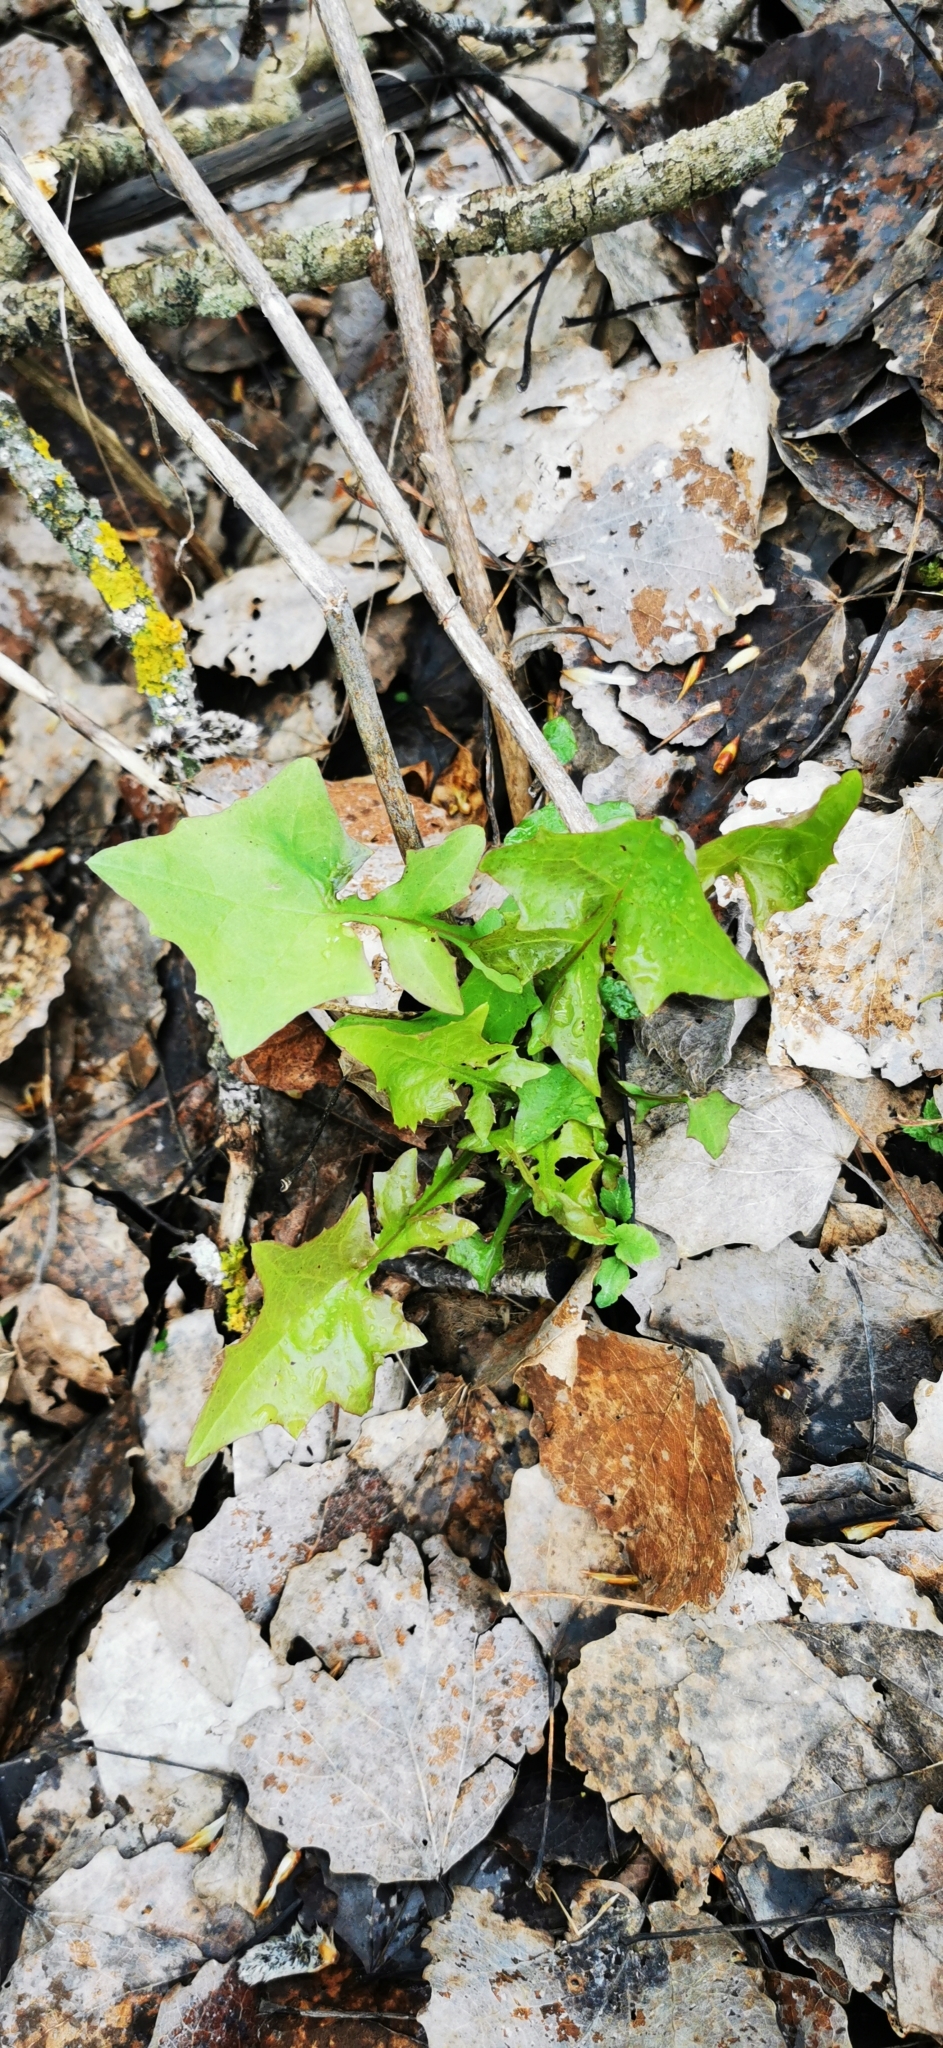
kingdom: Plantae
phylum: Tracheophyta
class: Magnoliopsida
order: Asterales
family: Asteraceae
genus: Mycelis
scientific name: Mycelis muralis
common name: Wall lettuce
